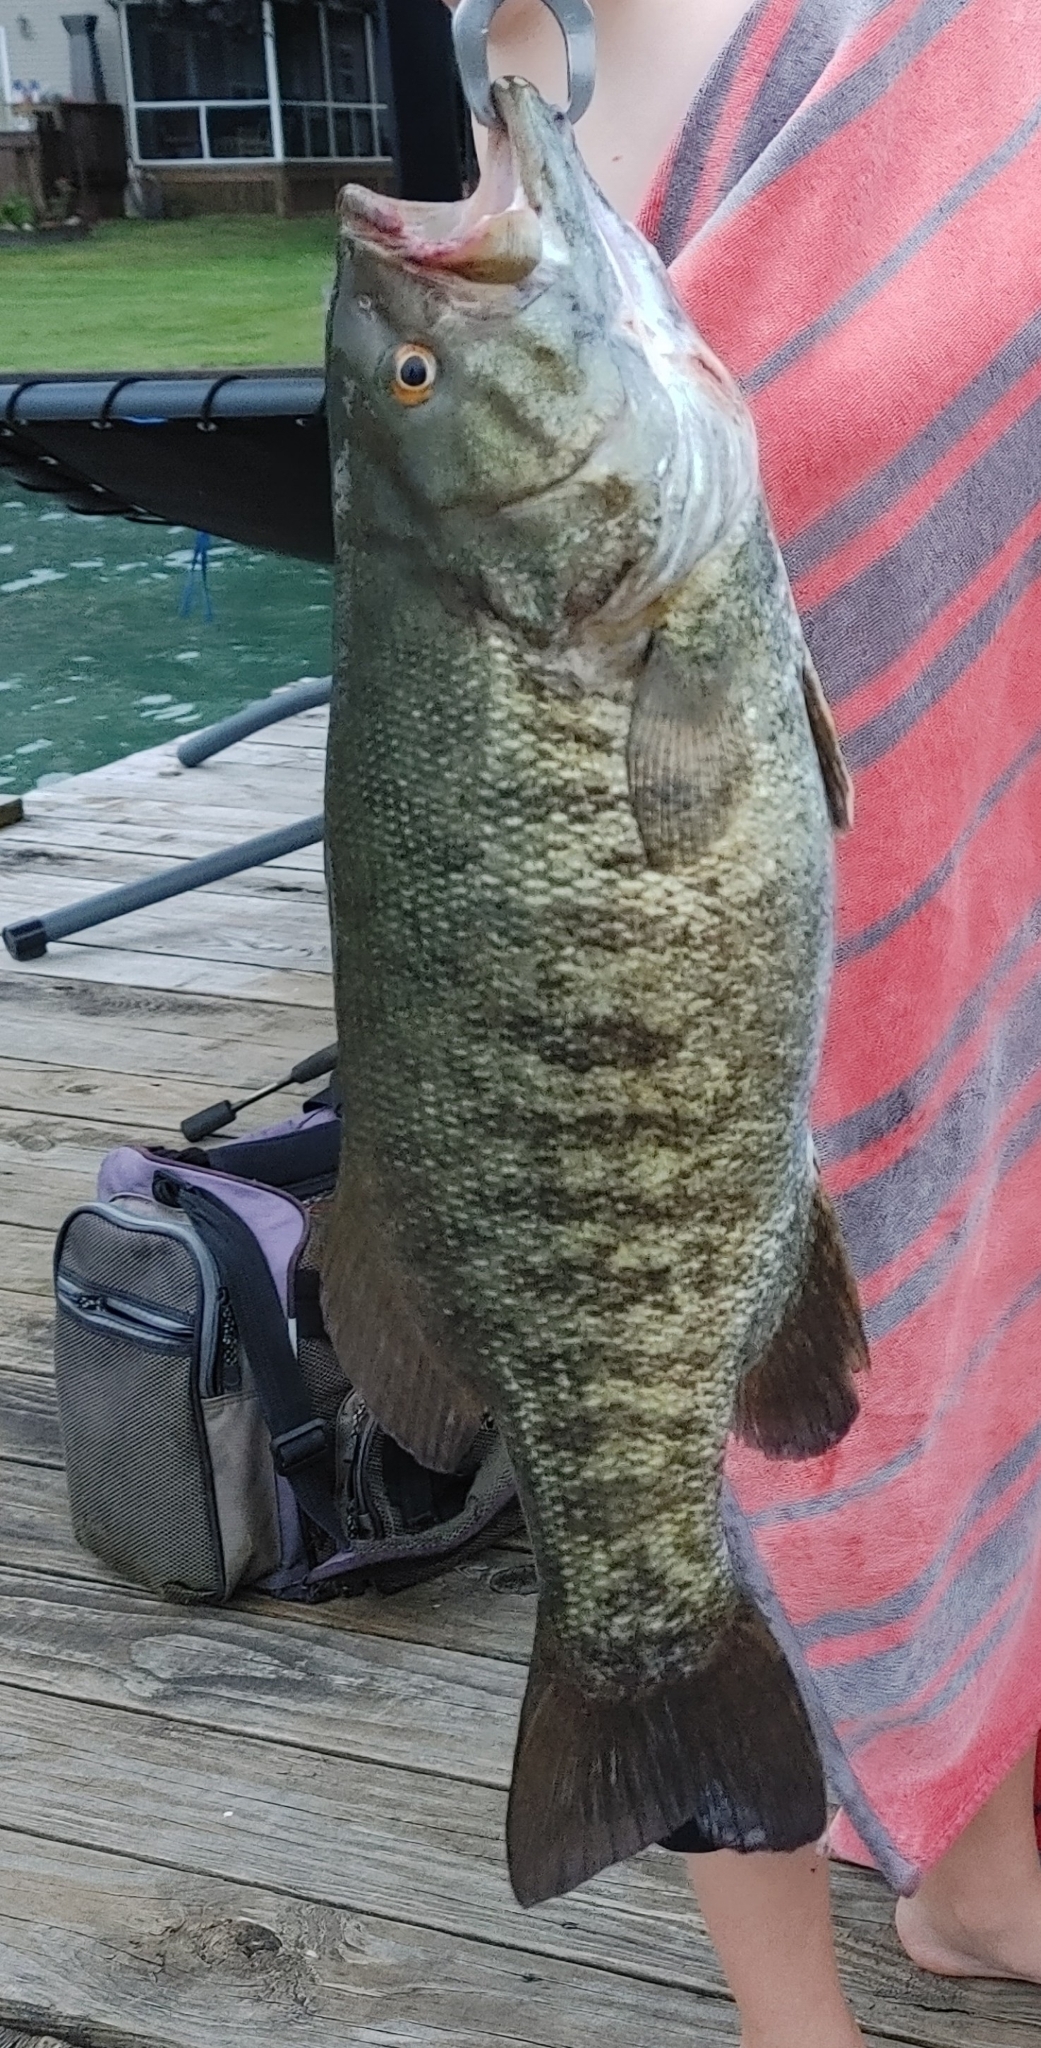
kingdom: Animalia
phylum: Chordata
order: Perciformes
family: Centrarchidae
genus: Micropterus
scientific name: Micropterus dolomieu
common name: Smallmouth bass
